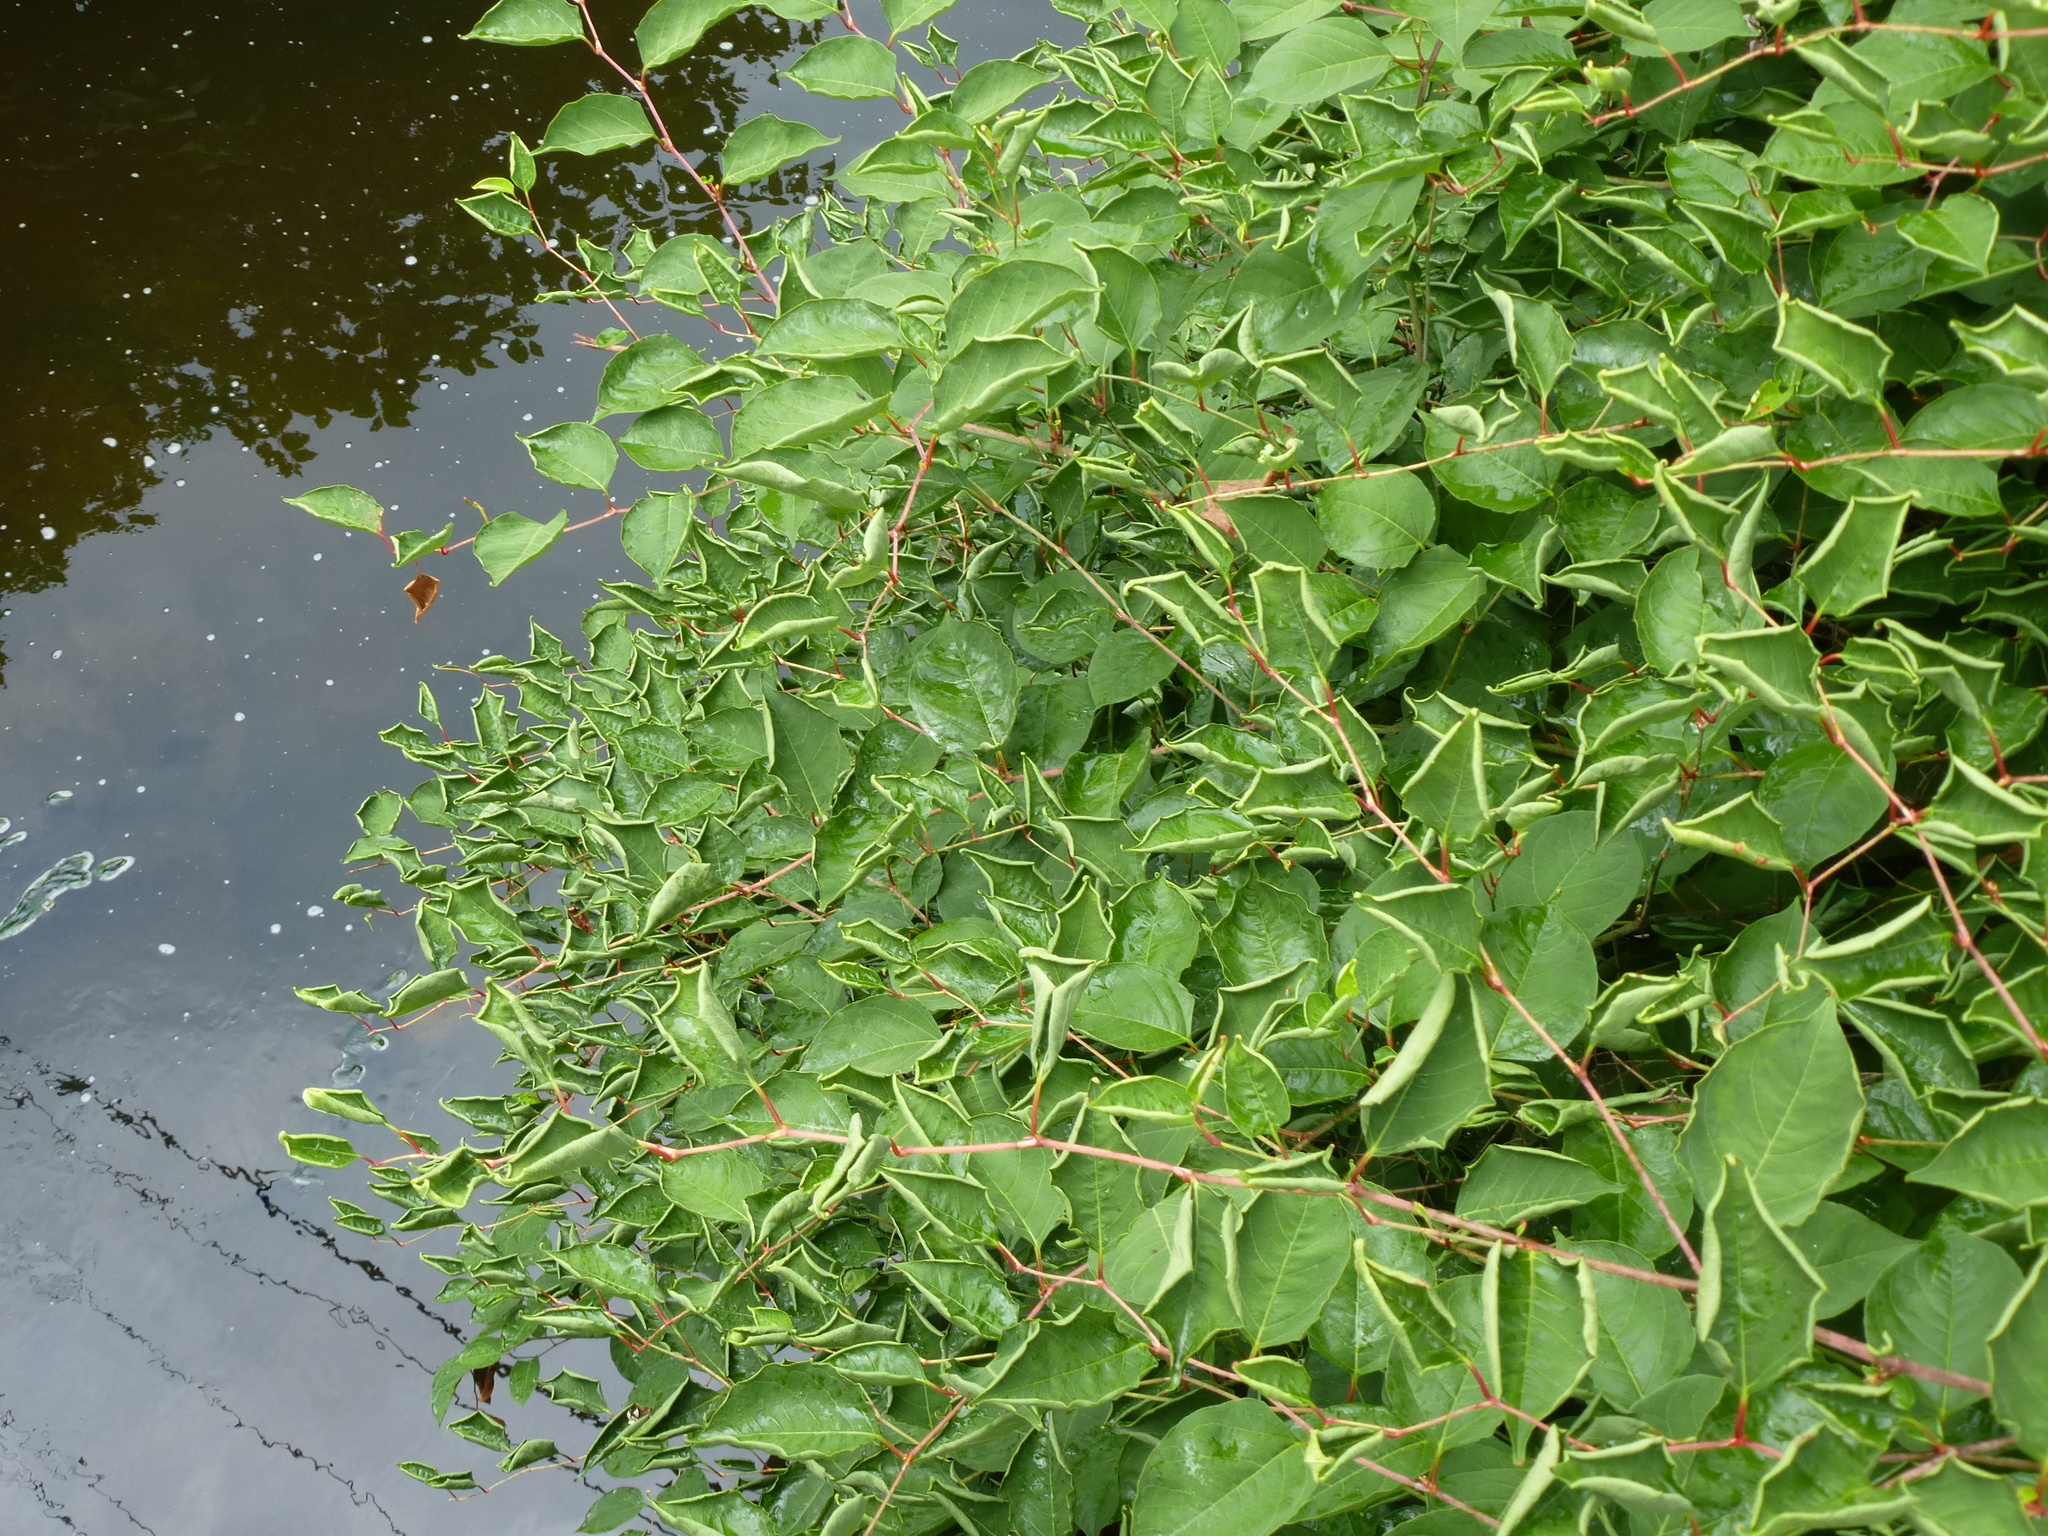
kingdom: Plantae
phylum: Tracheophyta
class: Magnoliopsida
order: Caryophyllales
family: Polygonaceae
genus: Reynoutria
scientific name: Reynoutria japonica
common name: Japanese knotweed
